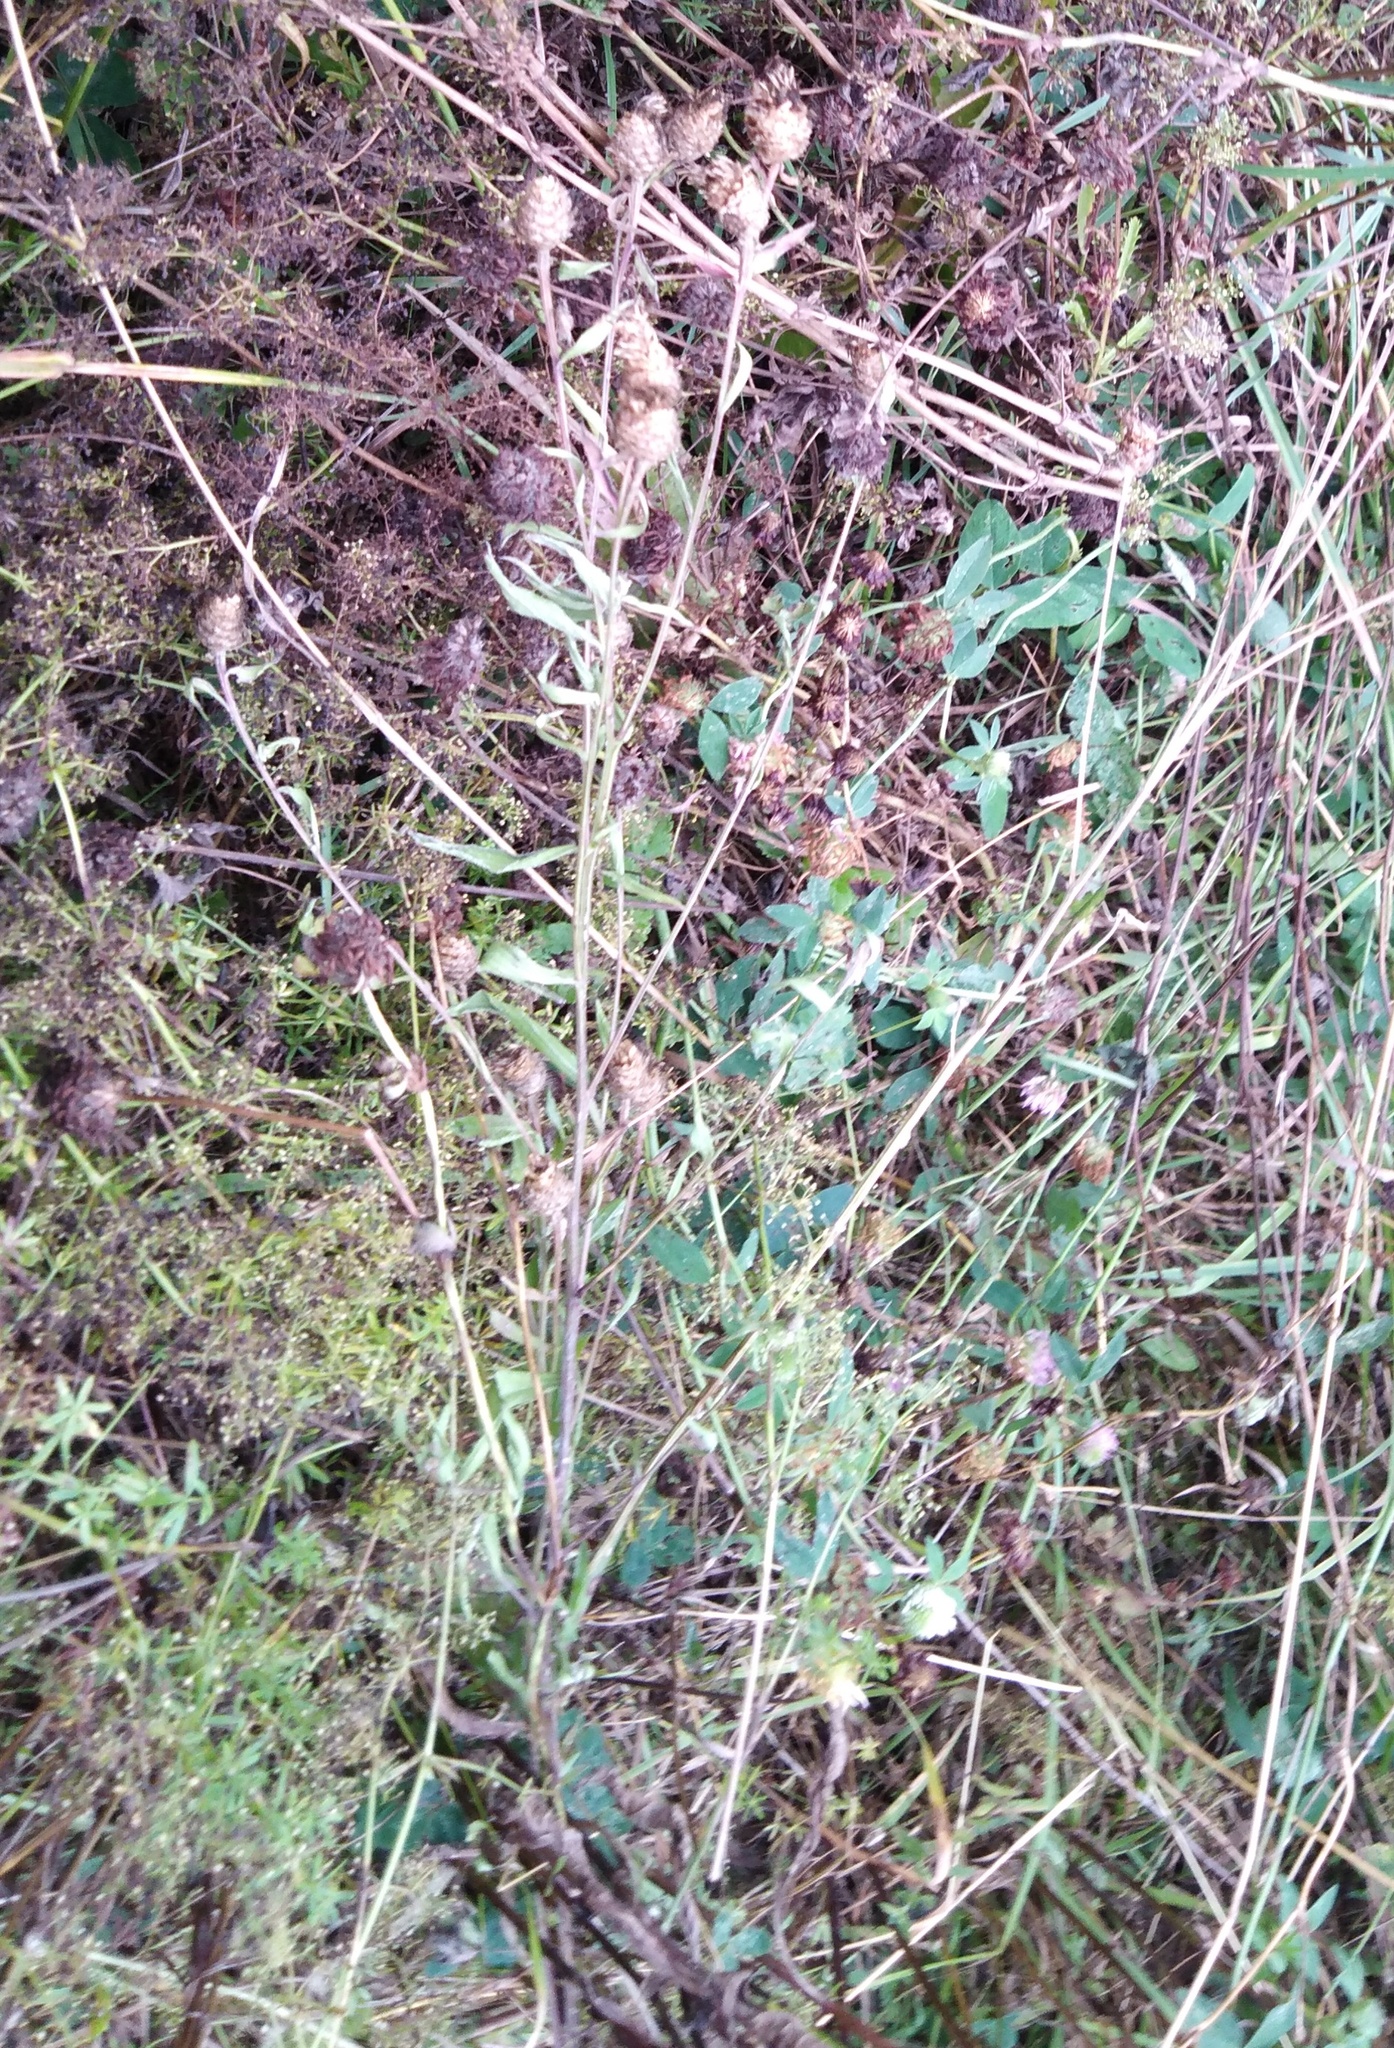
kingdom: Plantae
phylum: Tracheophyta
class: Magnoliopsida
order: Asterales
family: Asteraceae
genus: Centaurea
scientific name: Centaurea jacea
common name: Brown knapweed
